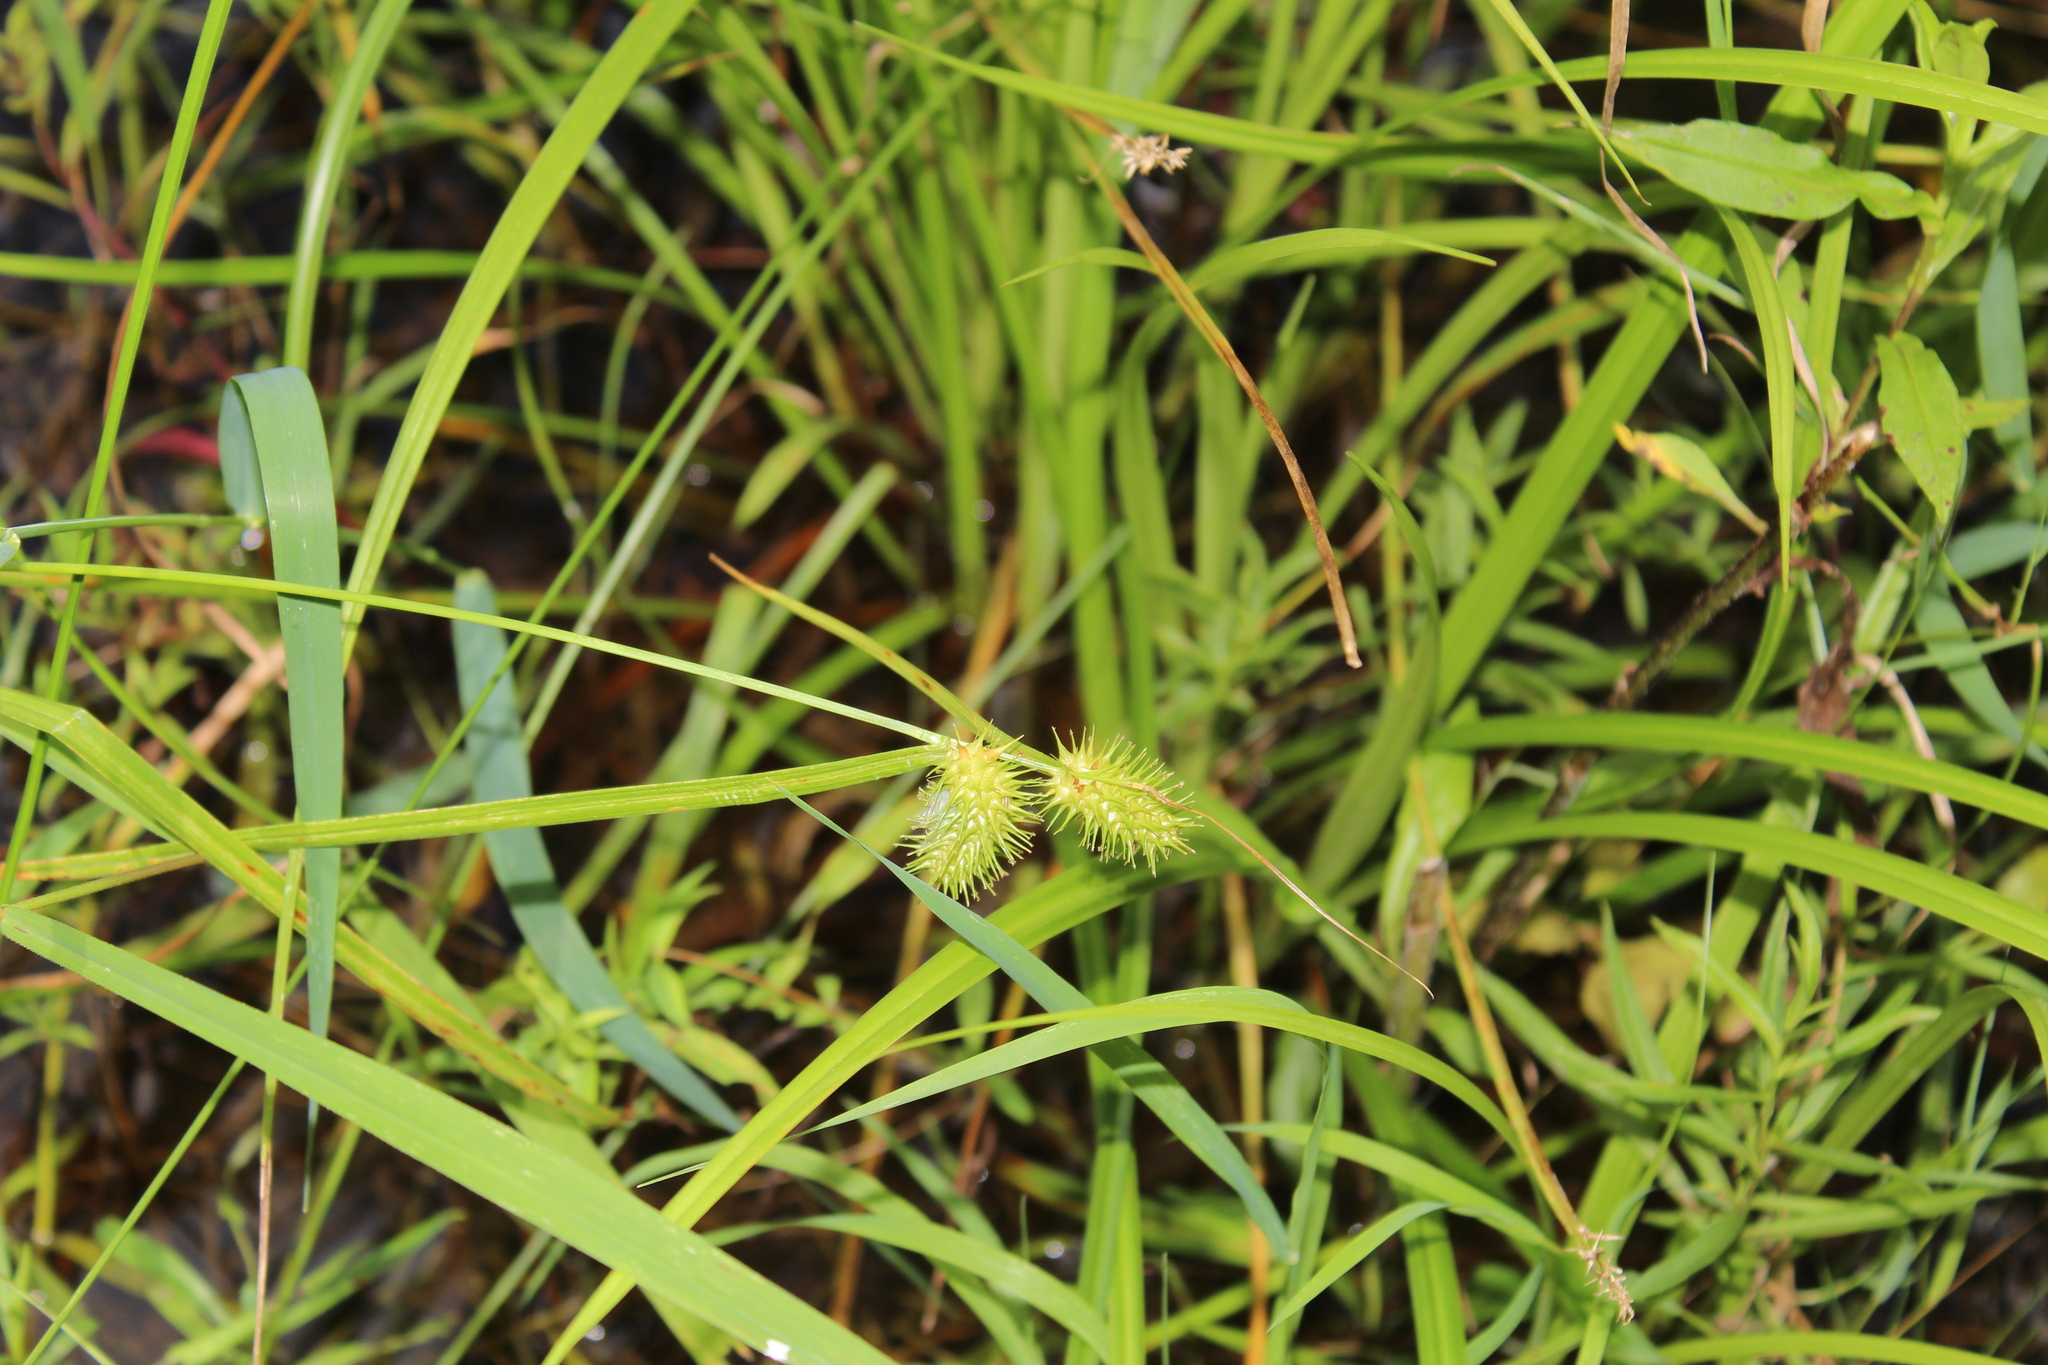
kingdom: Plantae
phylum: Tracheophyta
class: Liliopsida
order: Poales
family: Cyperaceae
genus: Carex
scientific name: Carex lurida
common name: Sallow sedge
